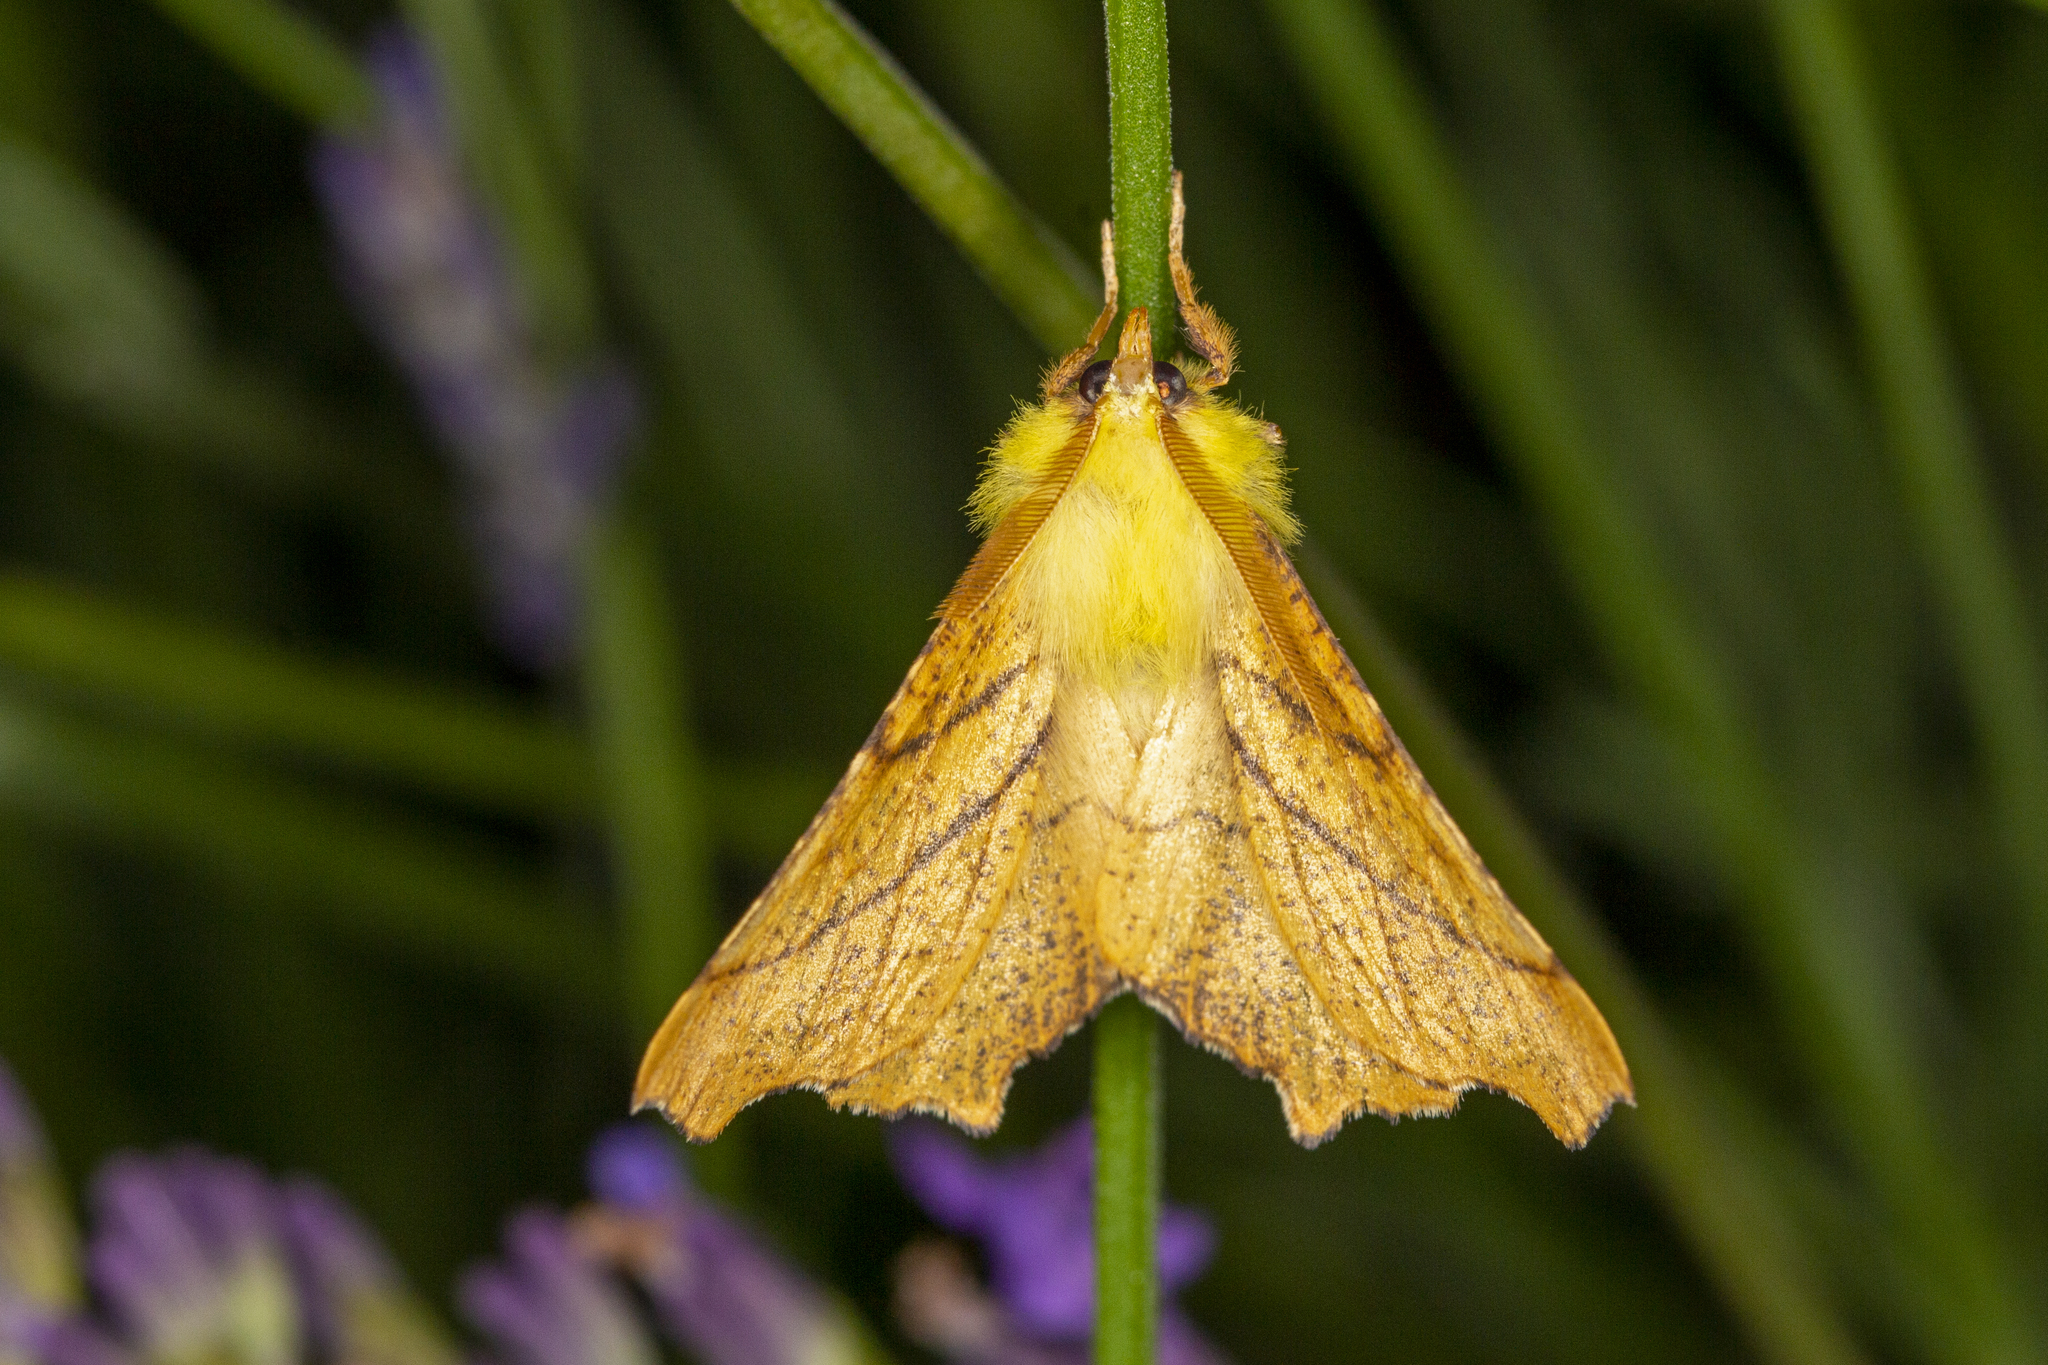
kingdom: Animalia
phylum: Arthropoda
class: Insecta
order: Lepidoptera
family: Geometridae
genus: Ennomos
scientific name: Ennomos alniaria
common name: Canary-shouldered thorn
